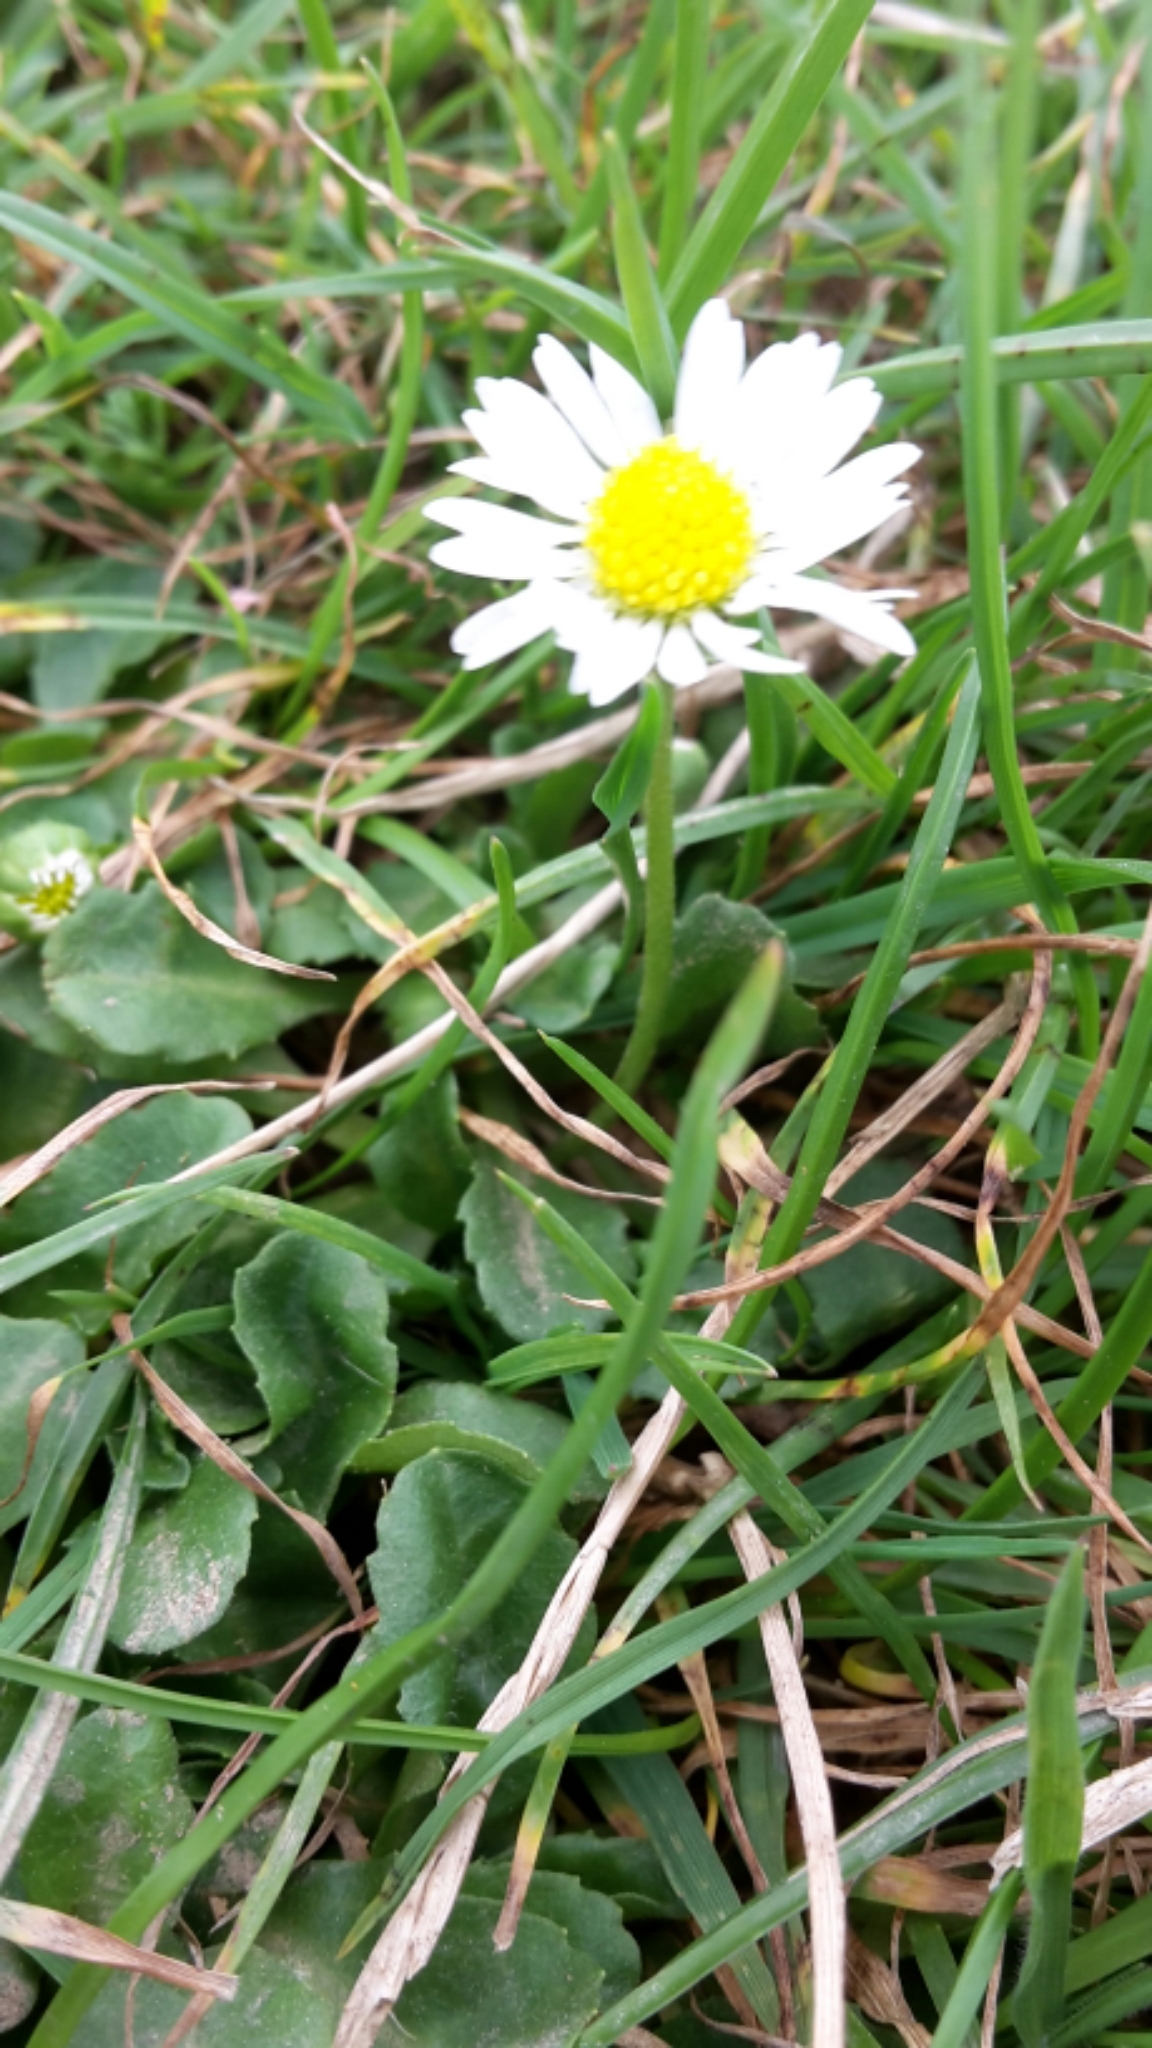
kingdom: Plantae
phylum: Tracheophyta
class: Magnoliopsida
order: Asterales
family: Asteraceae
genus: Bellis
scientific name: Bellis perennis
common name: Lawndaisy
